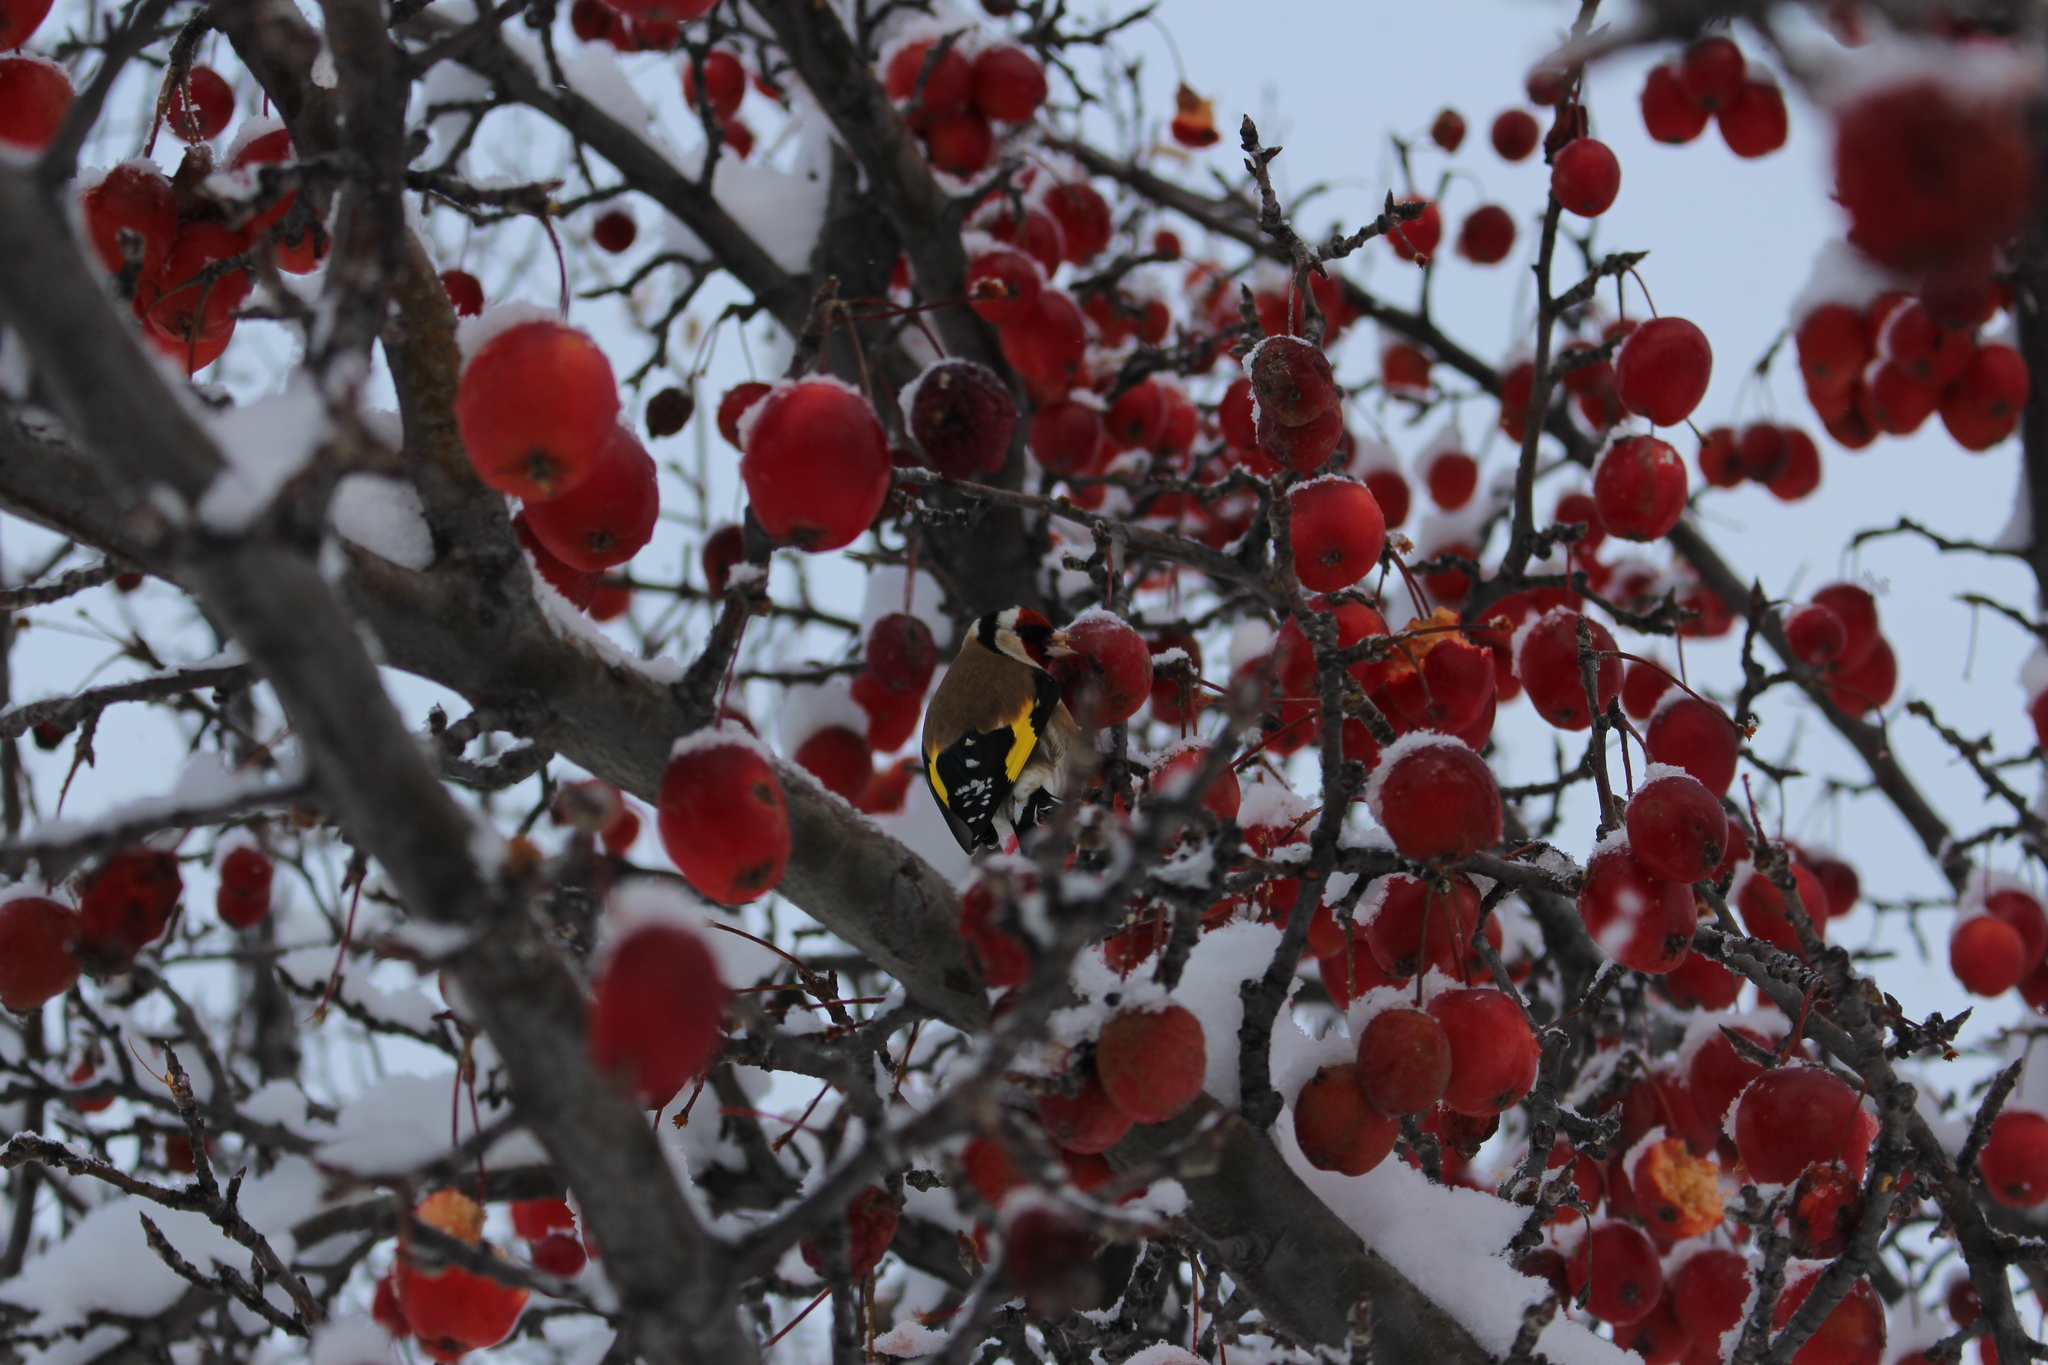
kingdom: Animalia
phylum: Chordata
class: Aves
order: Passeriformes
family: Fringillidae
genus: Carduelis
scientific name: Carduelis carduelis
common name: European goldfinch
